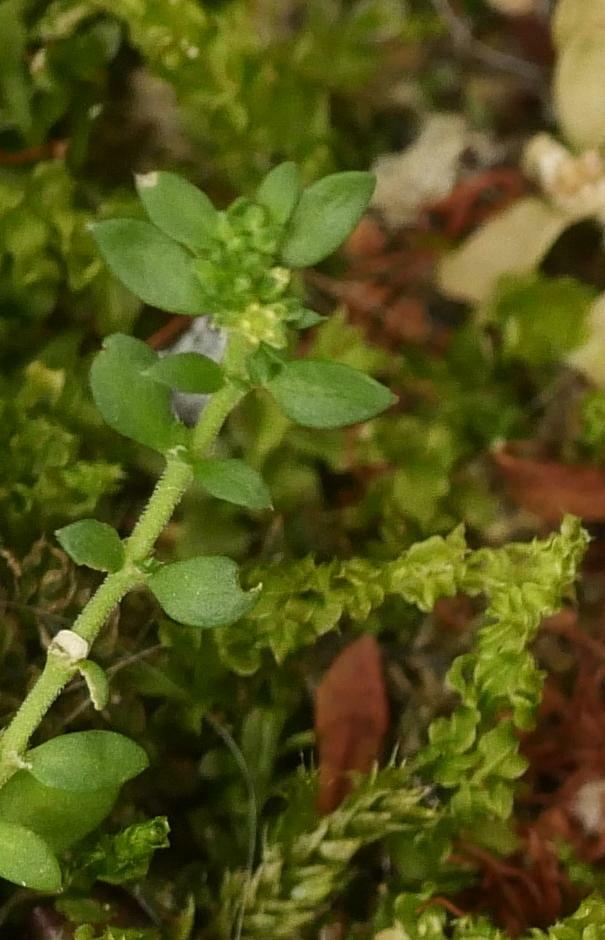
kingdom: Plantae
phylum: Tracheophyta
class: Magnoliopsida
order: Caryophyllales
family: Caryophyllaceae
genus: Herniaria
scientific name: Herniaria glabra
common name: Smooth rupturewort
